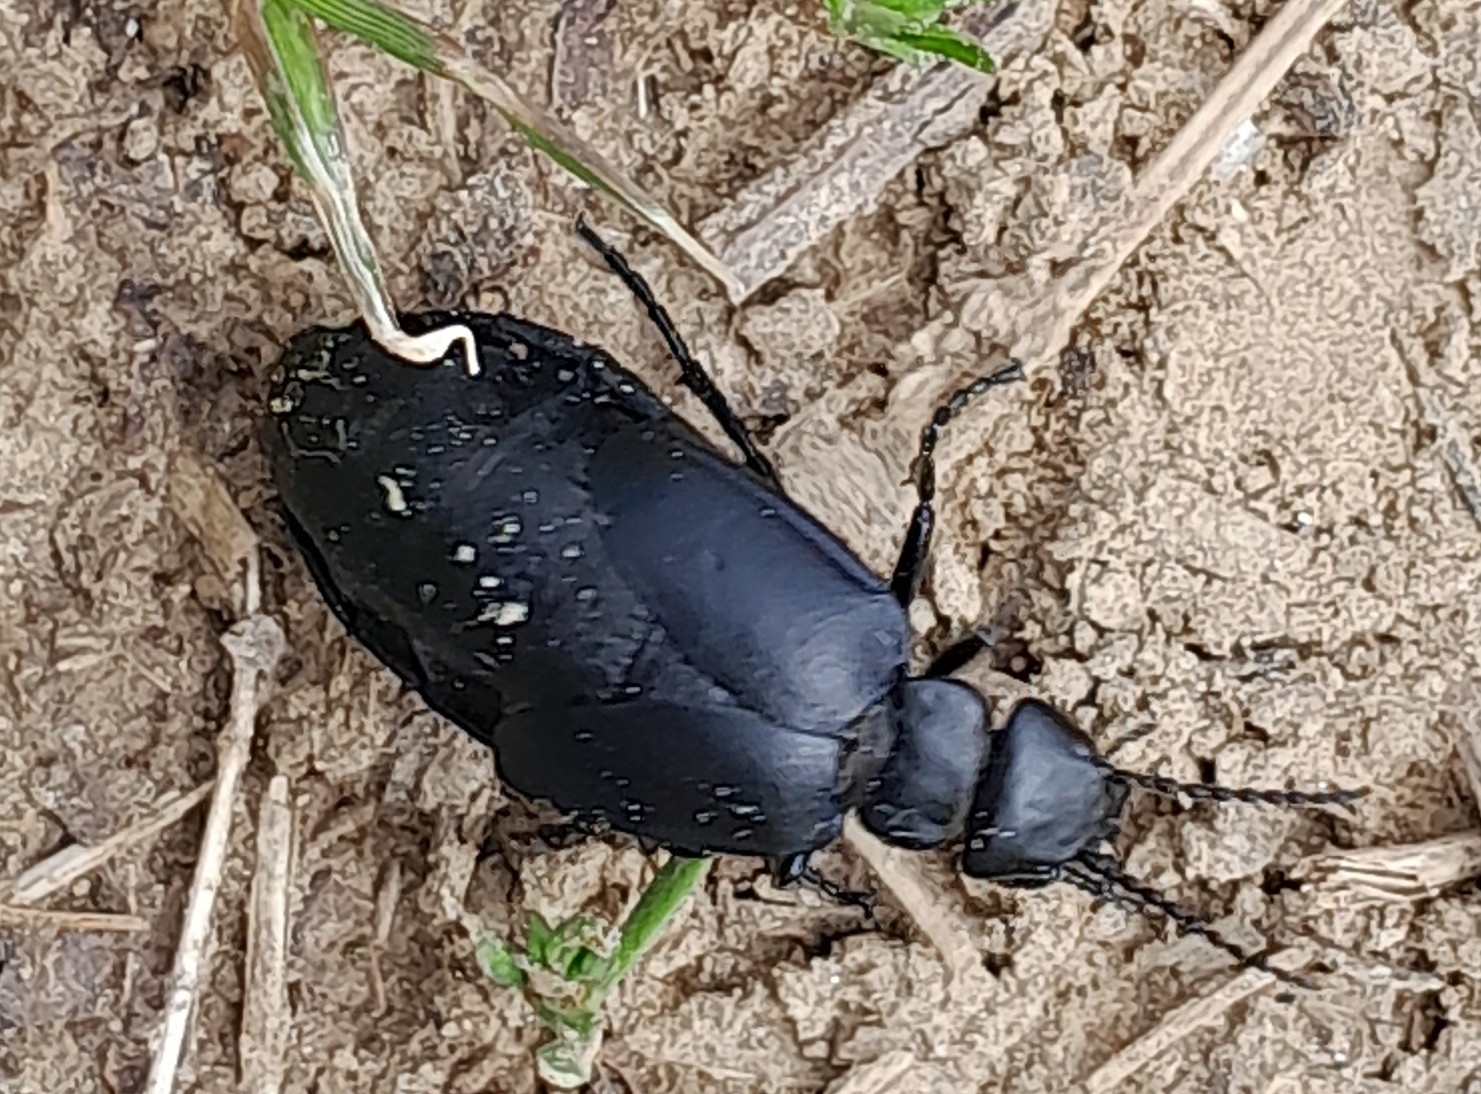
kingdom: Animalia
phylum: Arthropoda
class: Insecta
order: Coleoptera
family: Meloidae
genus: Meloe
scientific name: Meloe uralensis
